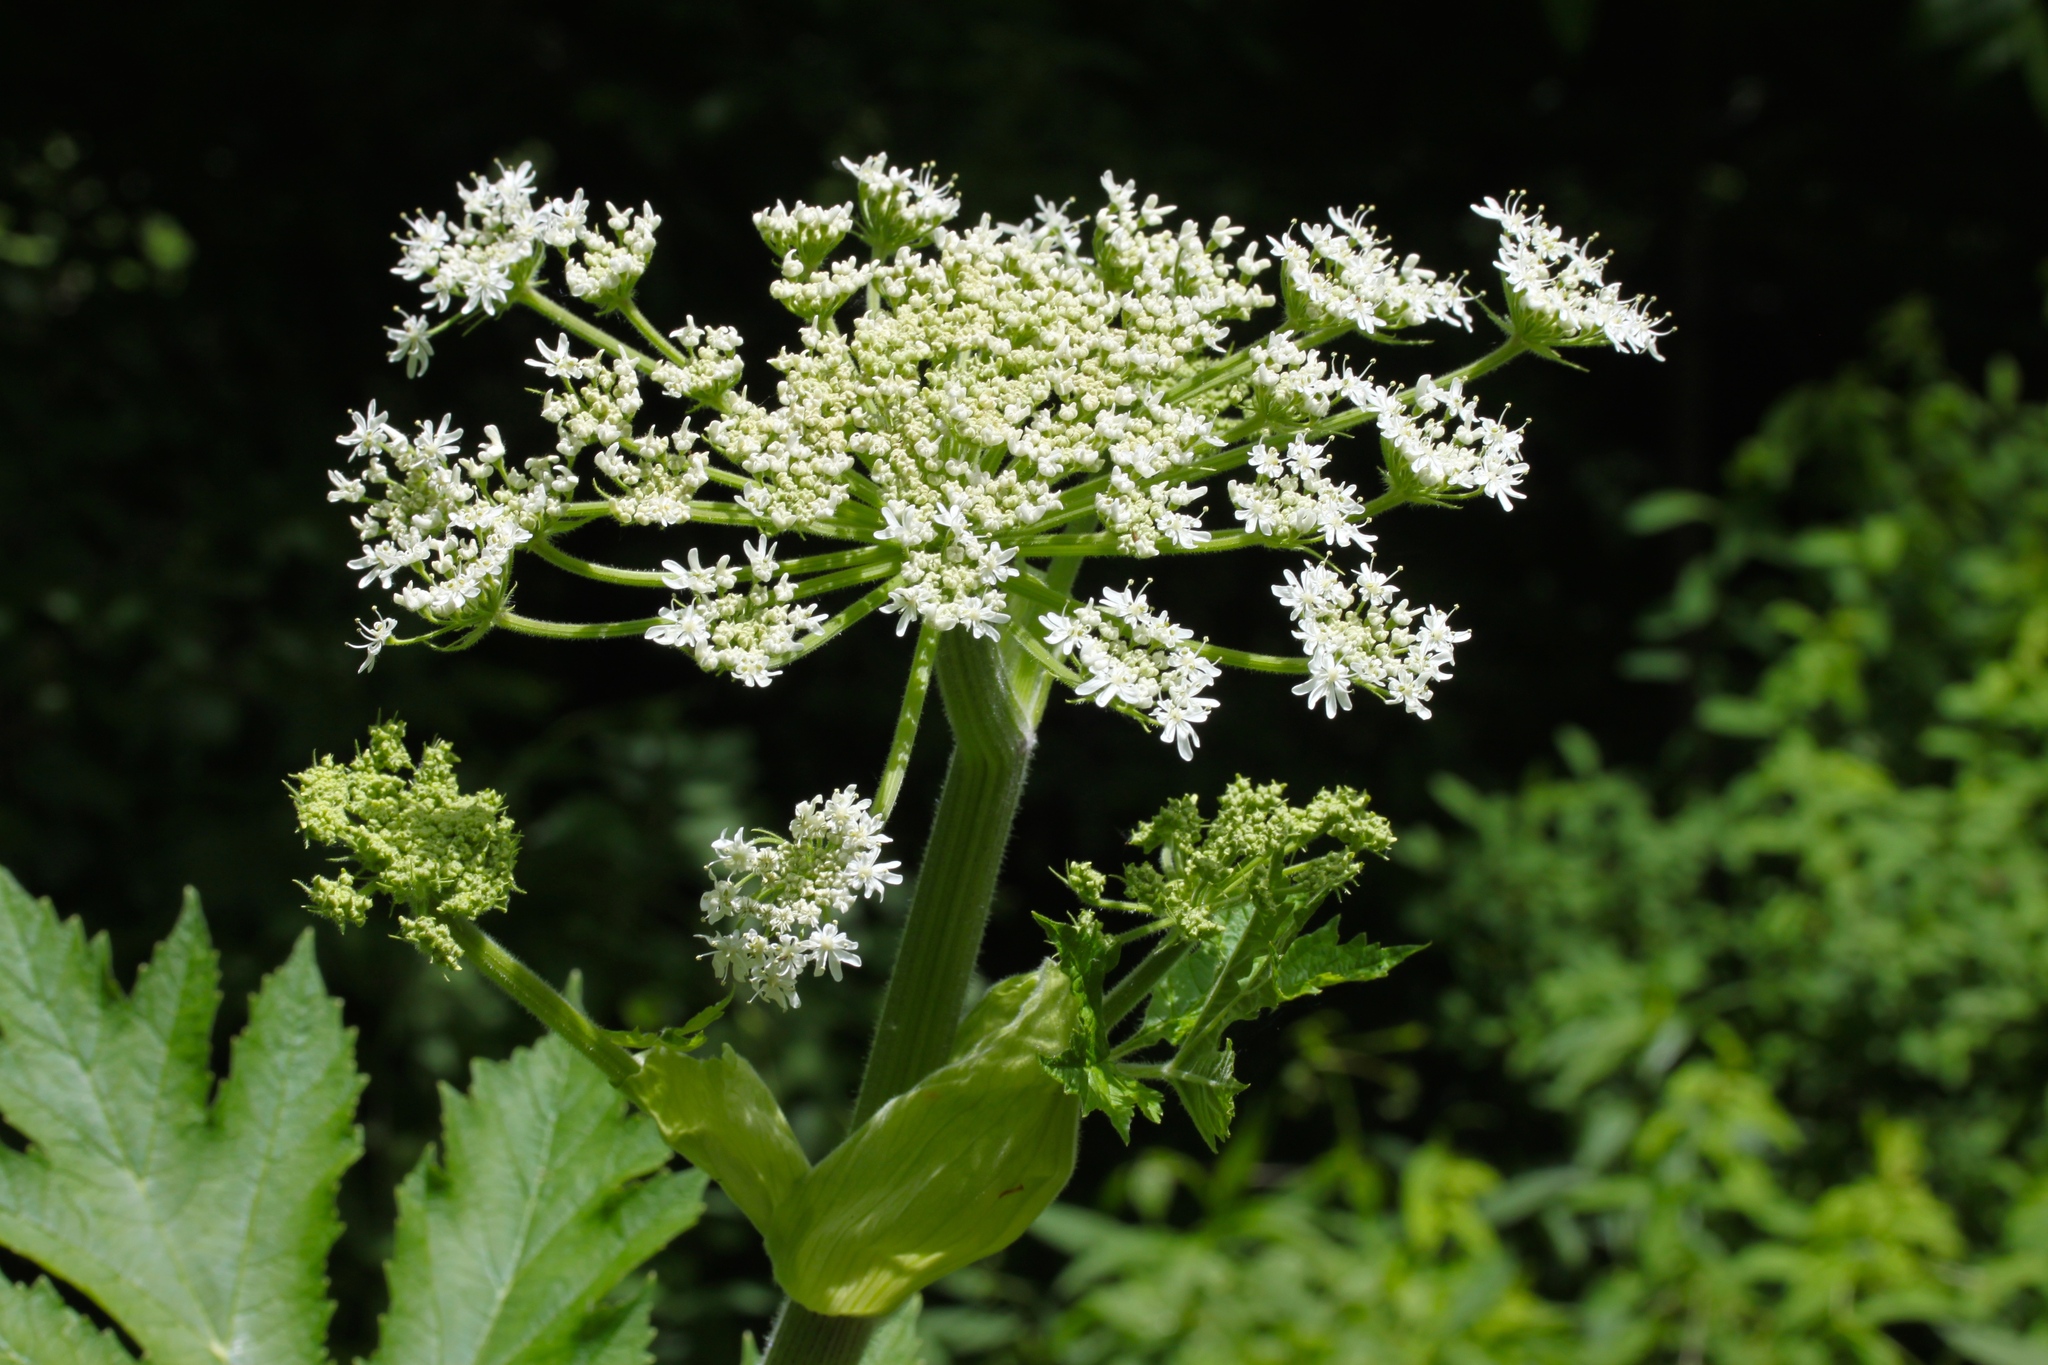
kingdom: Plantae
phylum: Tracheophyta
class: Magnoliopsida
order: Apiales
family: Apiaceae
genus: Heracleum
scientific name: Heracleum maximum
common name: American cow parsnip
